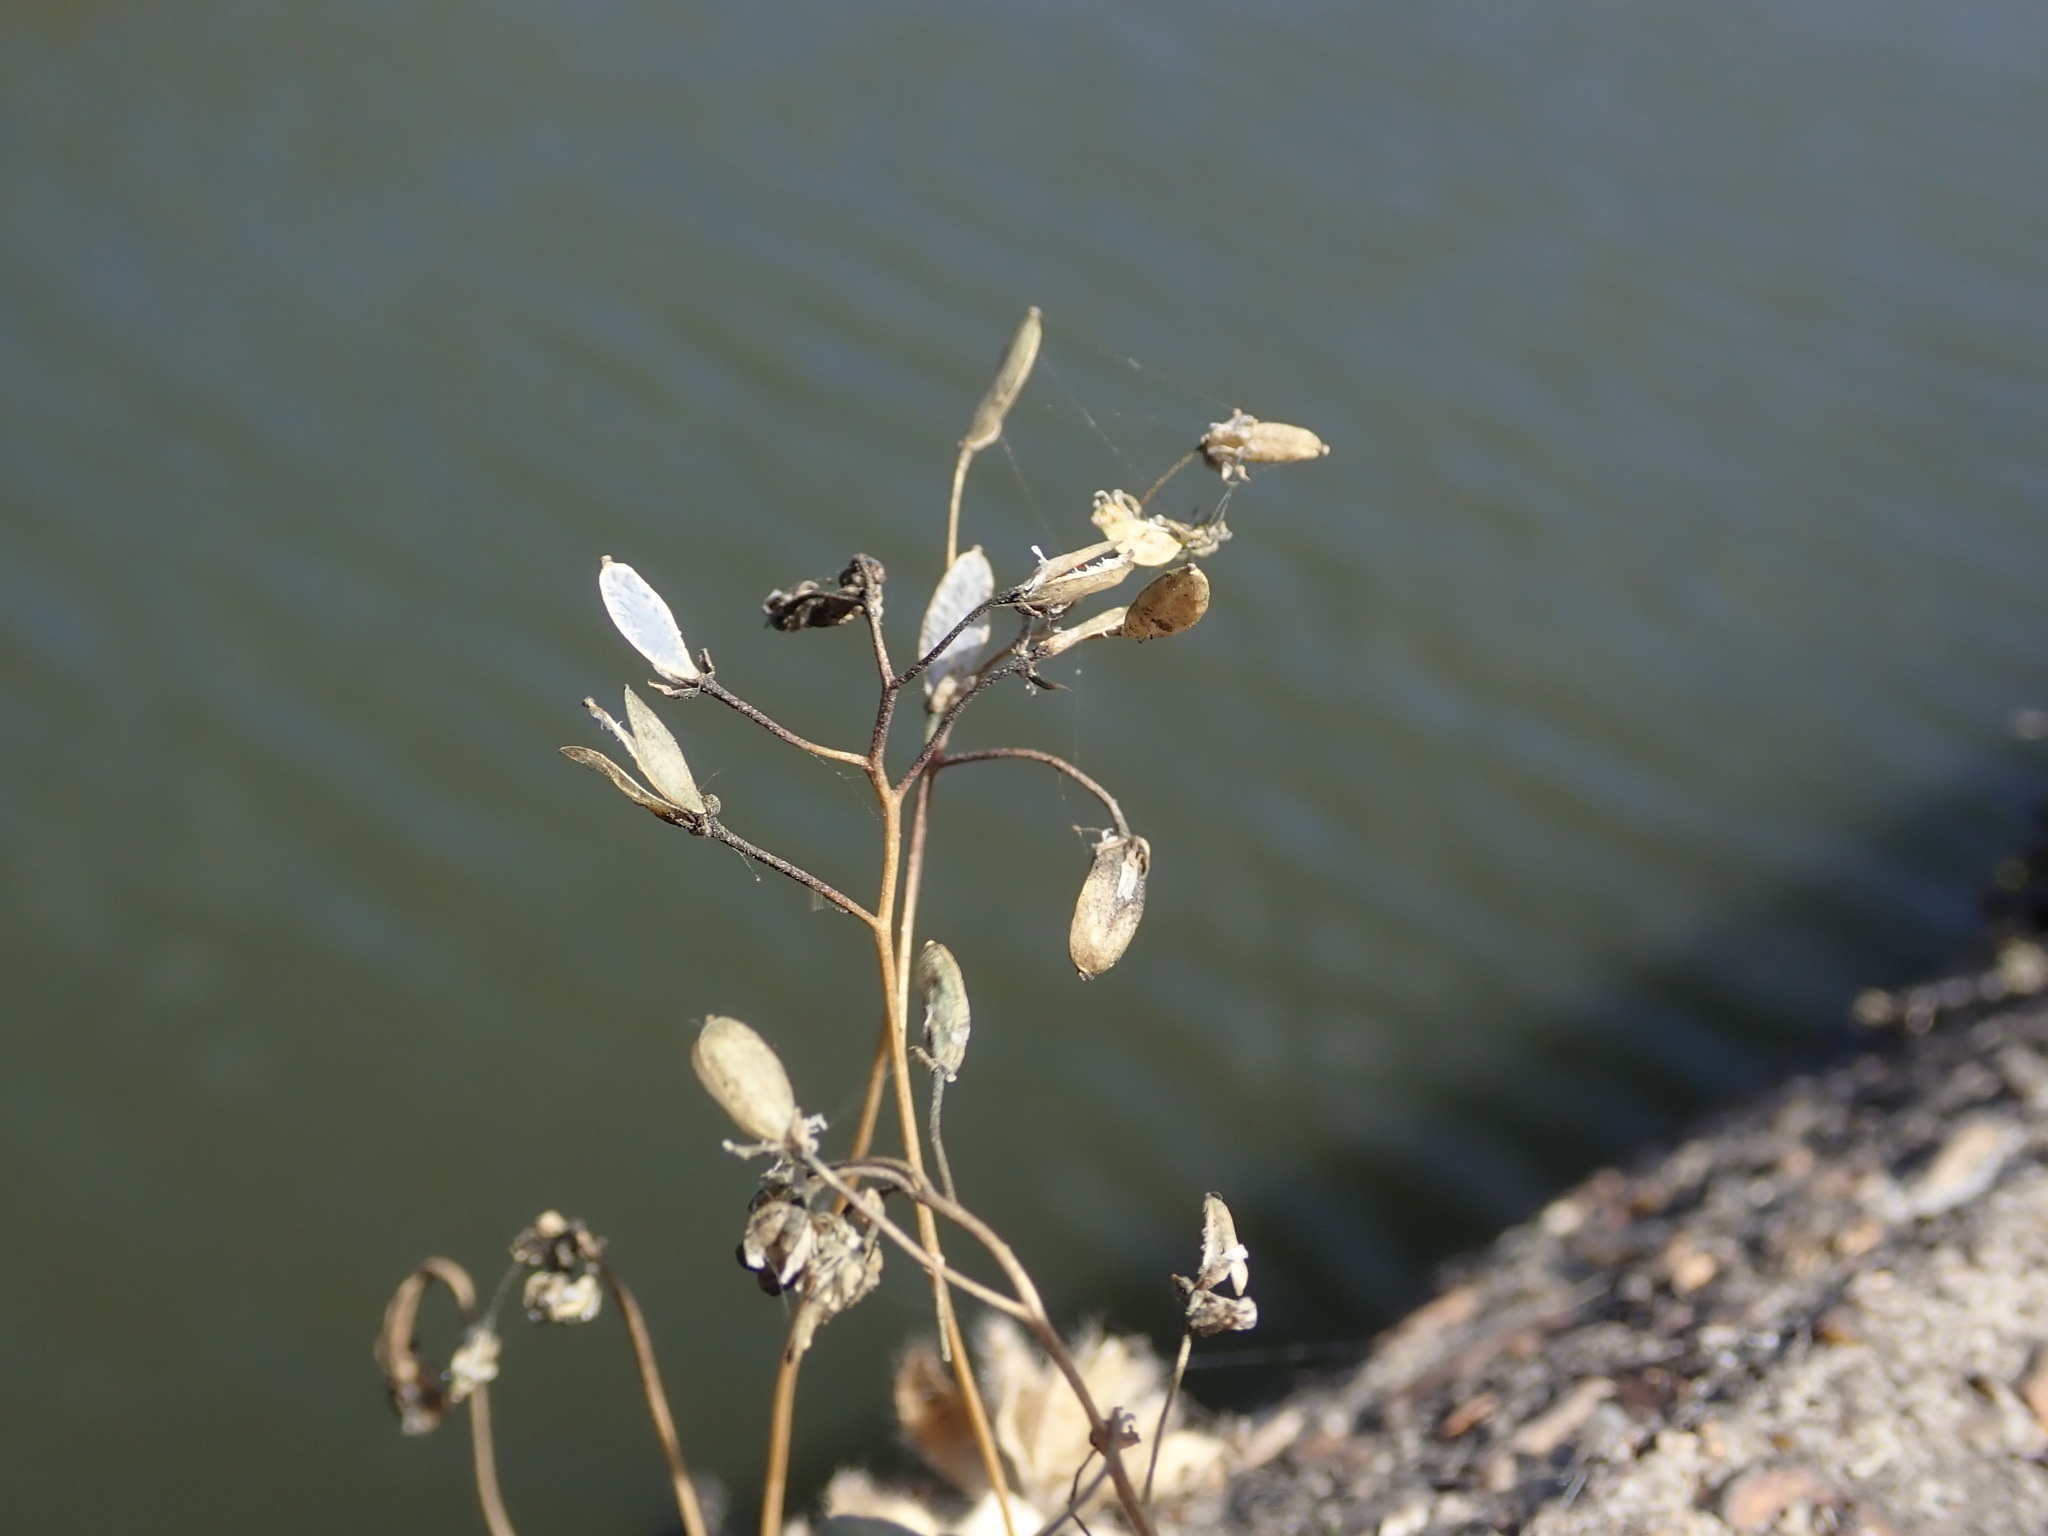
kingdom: Plantae
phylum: Tracheophyta
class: Magnoliopsida
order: Brassicales
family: Brassicaceae
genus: Draba
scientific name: Draba verna
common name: Spring draba
